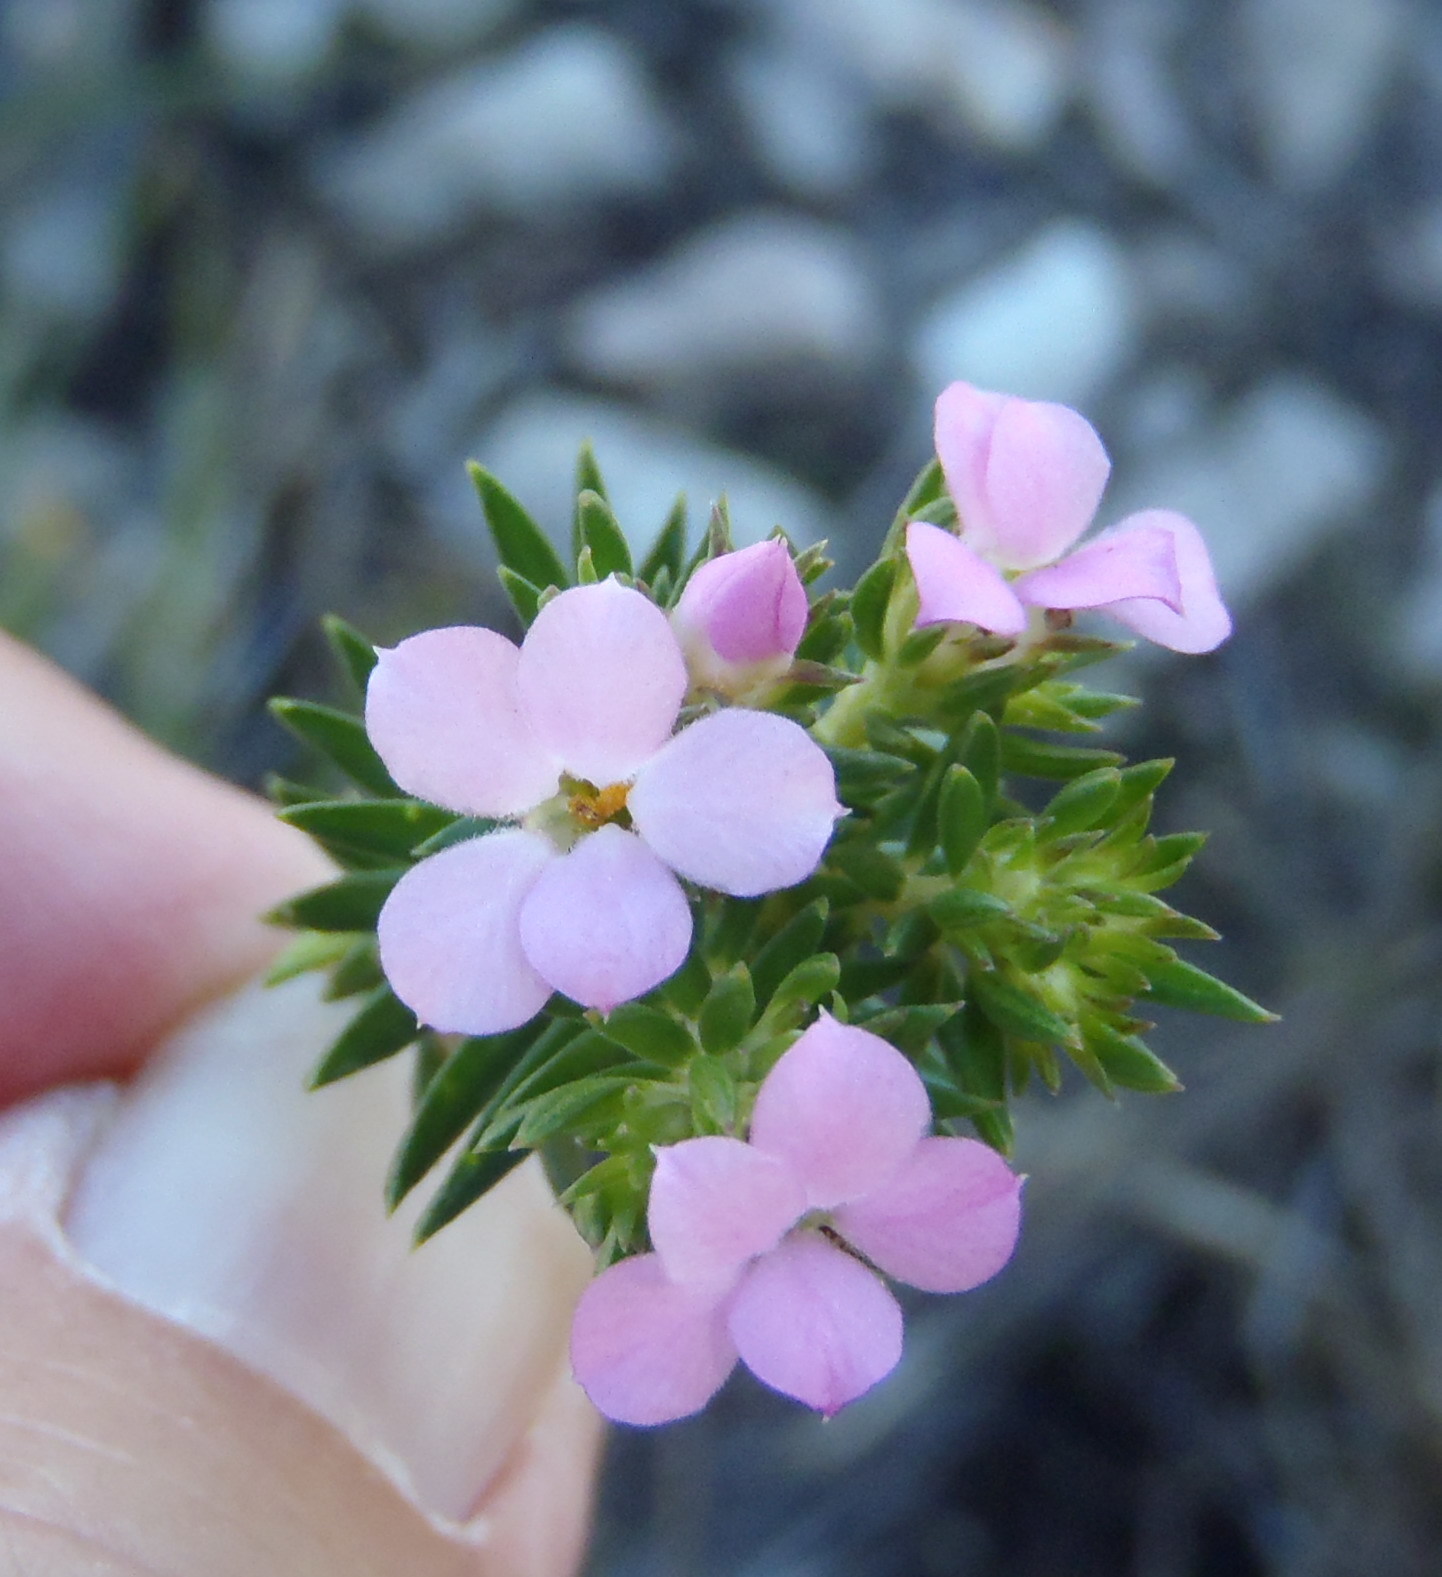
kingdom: Plantae
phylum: Tracheophyta
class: Magnoliopsida
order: Sapindales
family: Rutaceae
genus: Acmadenia
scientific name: Acmadenia alternifolia
